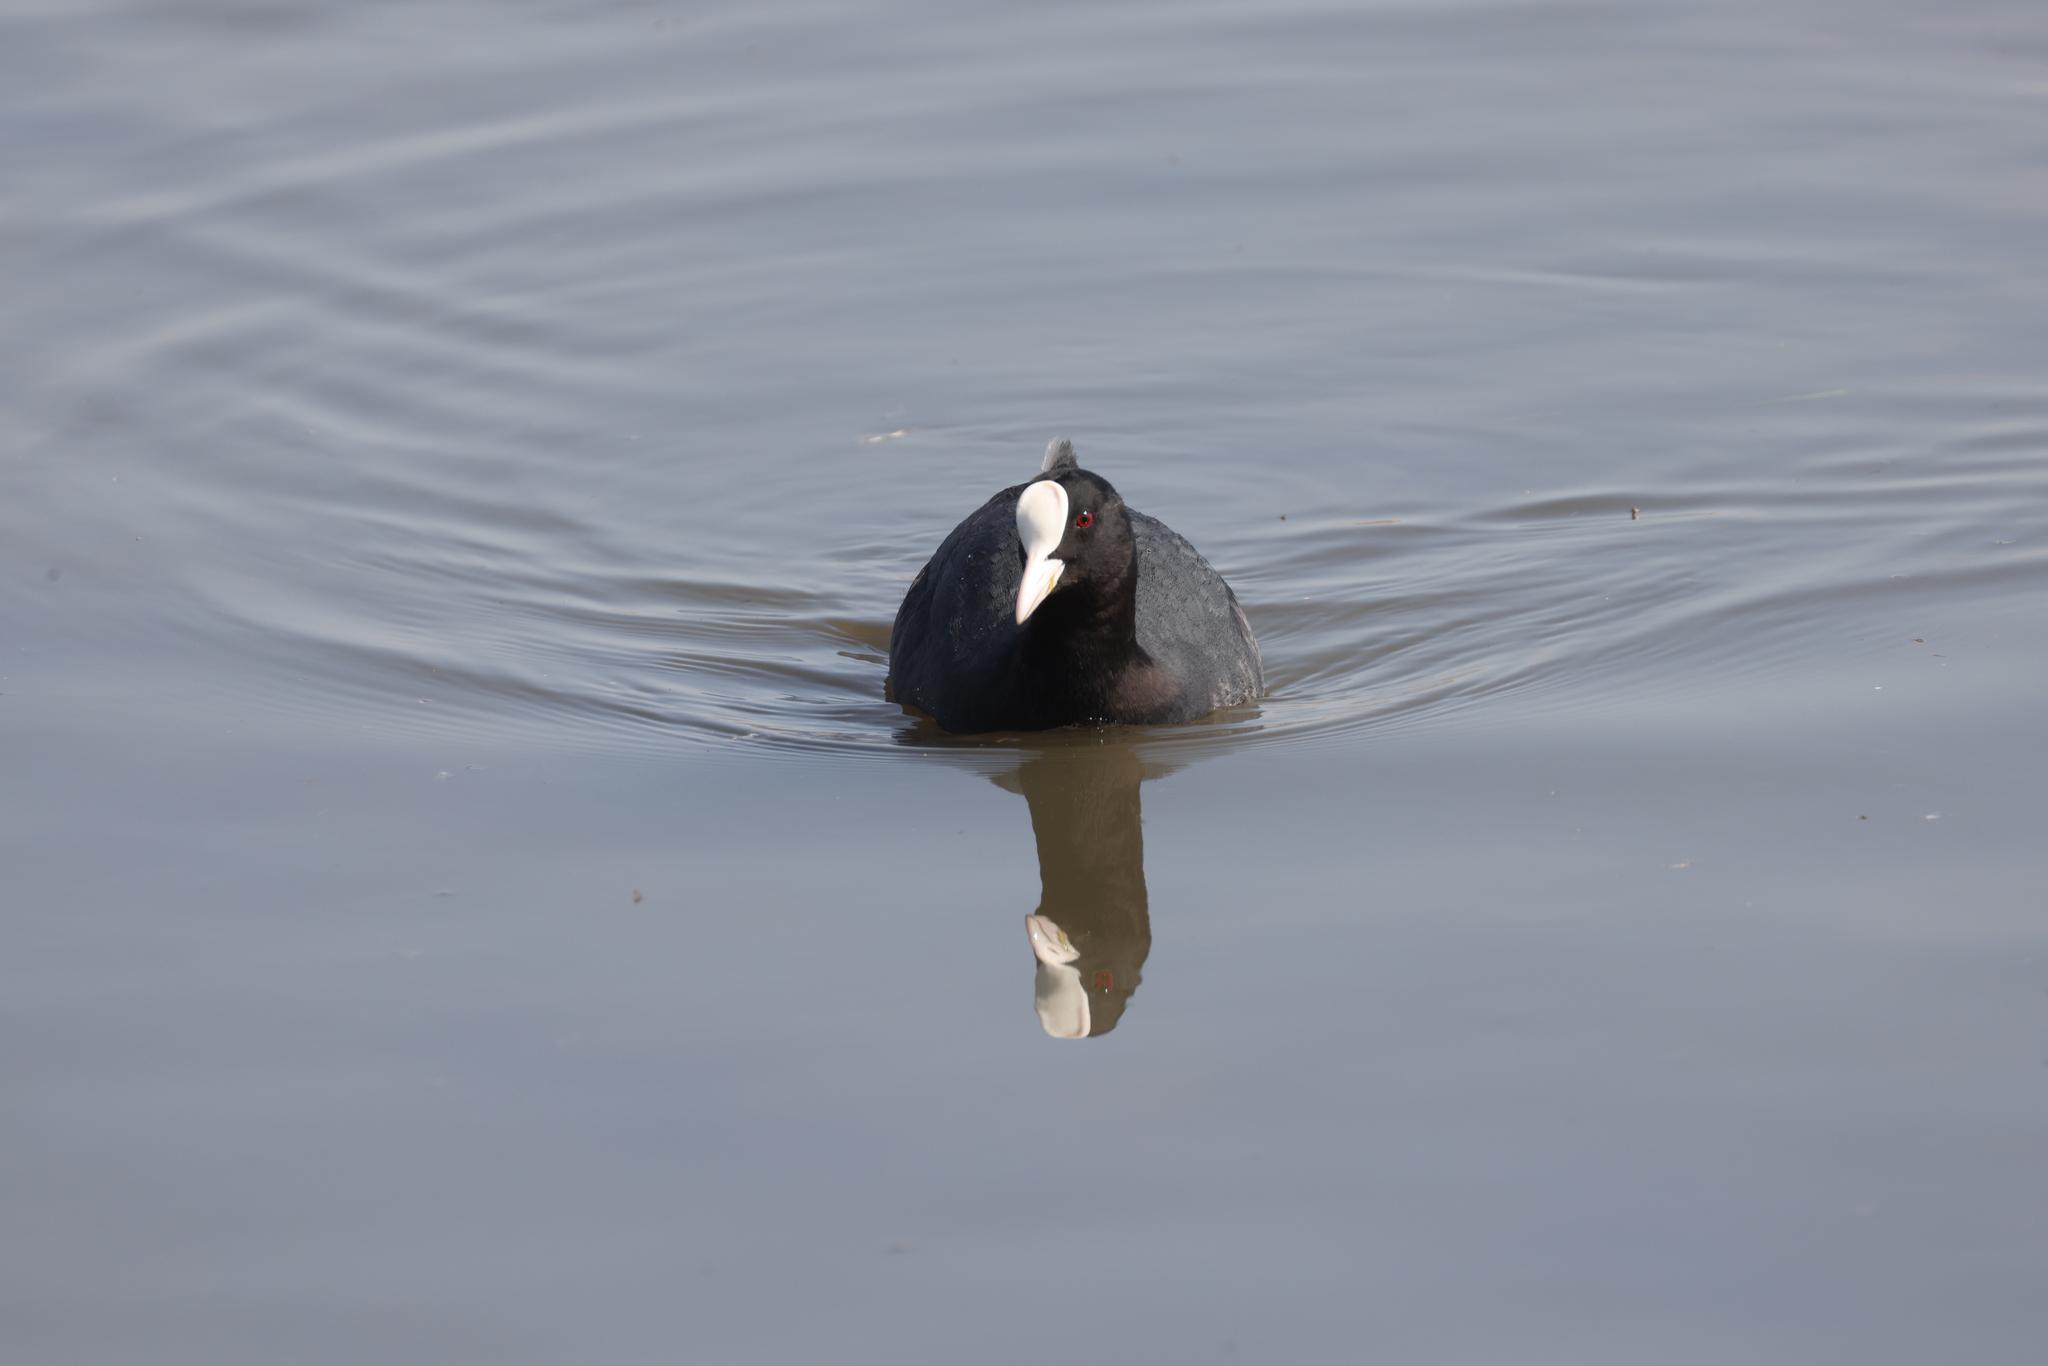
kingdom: Animalia
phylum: Chordata
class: Aves
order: Gruiformes
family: Rallidae
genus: Fulica
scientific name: Fulica atra
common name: Eurasian coot
